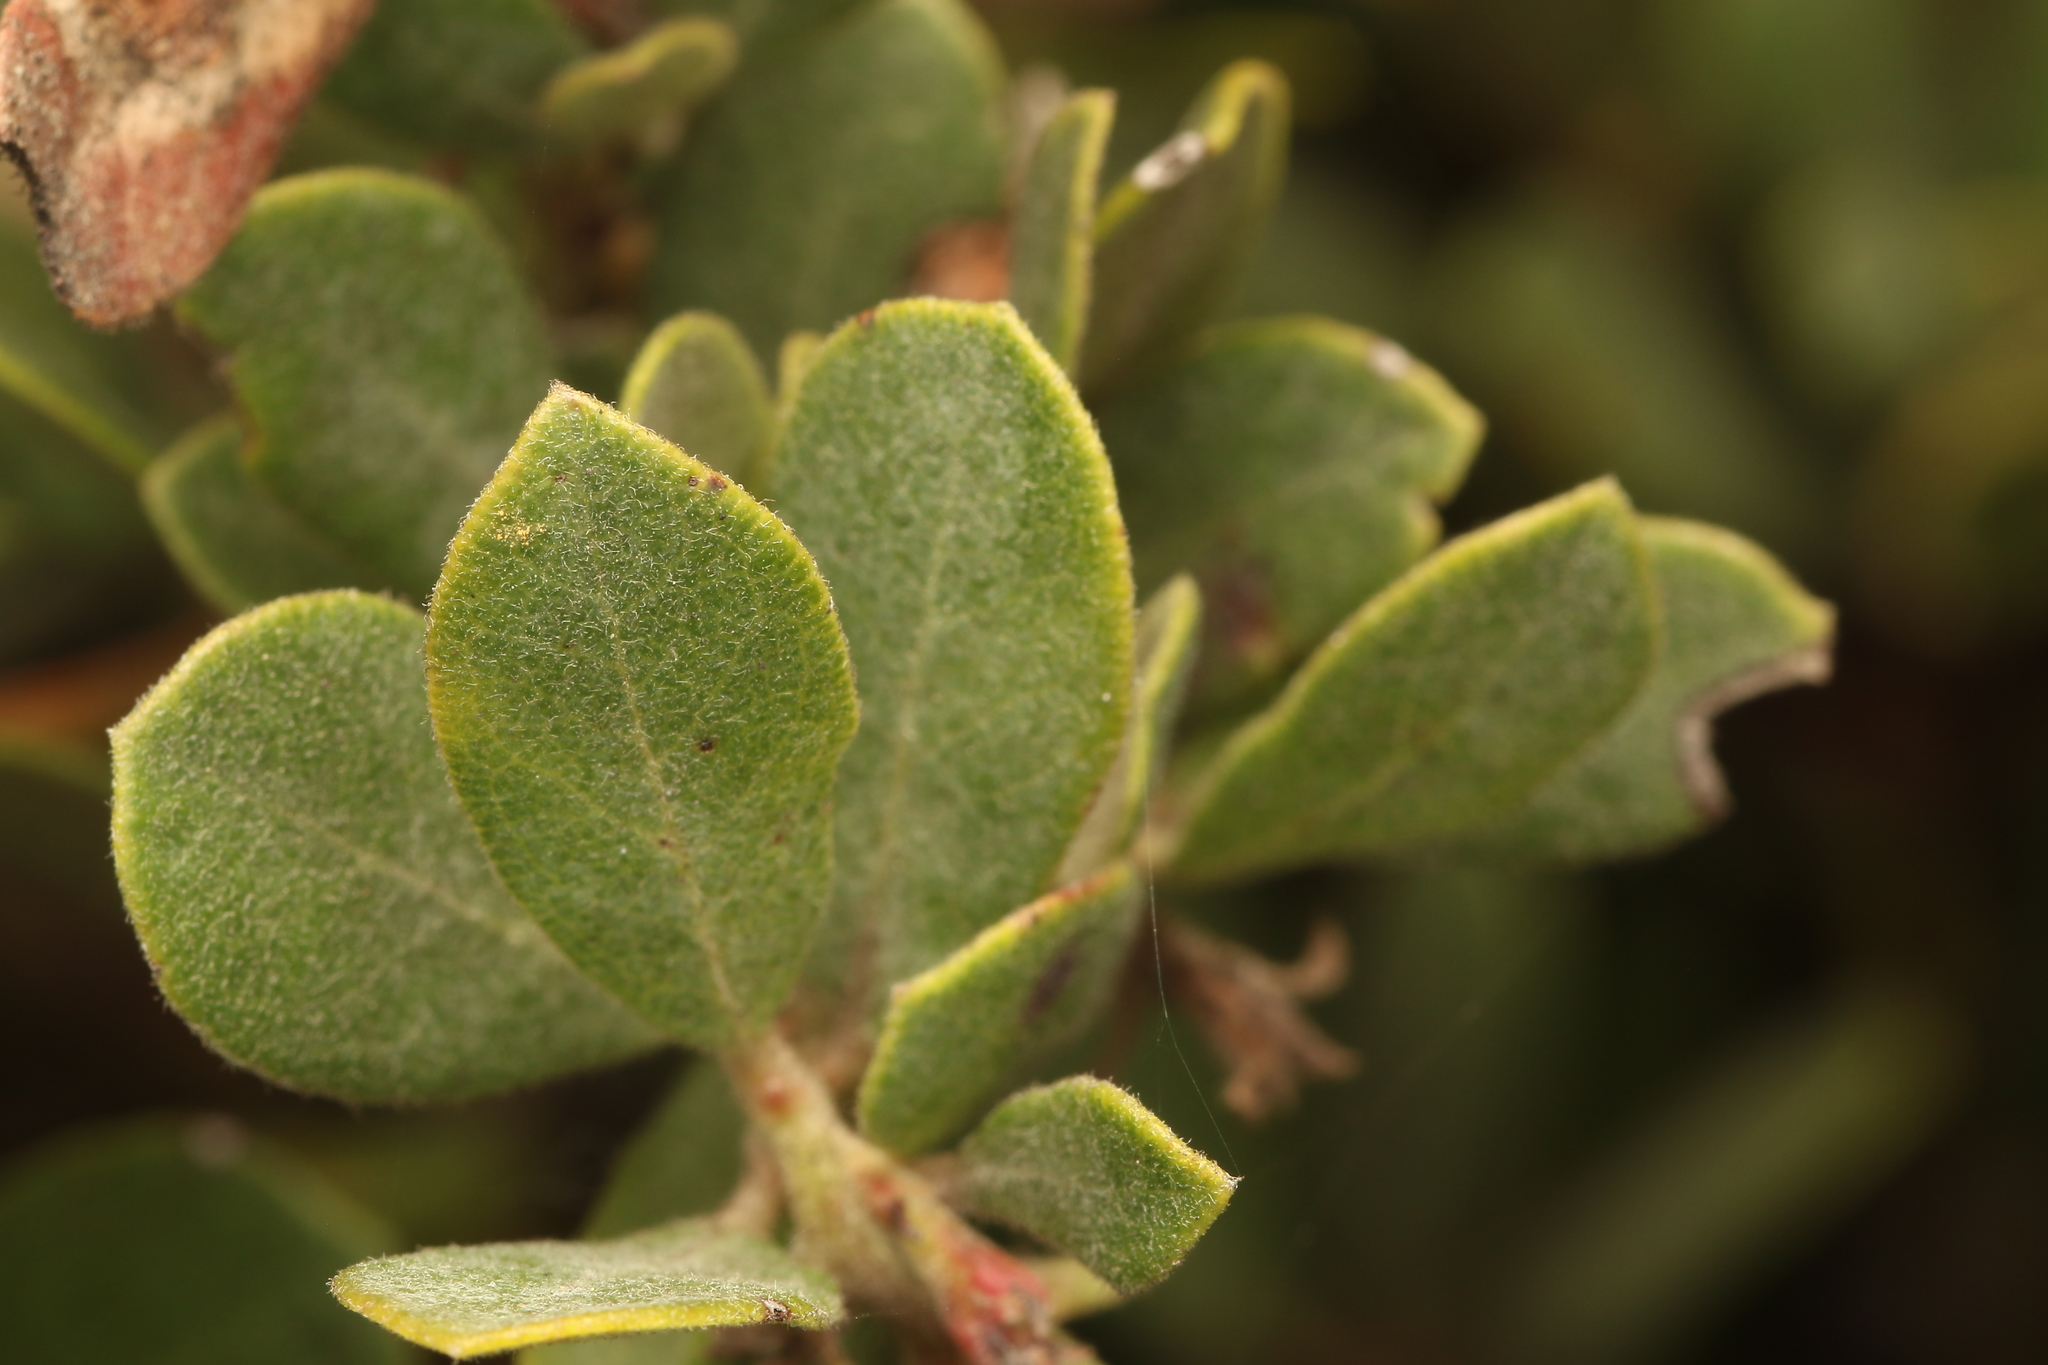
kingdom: Plantae
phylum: Tracheophyta
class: Magnoliopsida
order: Ericales
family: Ericaceae
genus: Arctostaphylos
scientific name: Arctostaphylos pumila
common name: Sandmat manzanita
